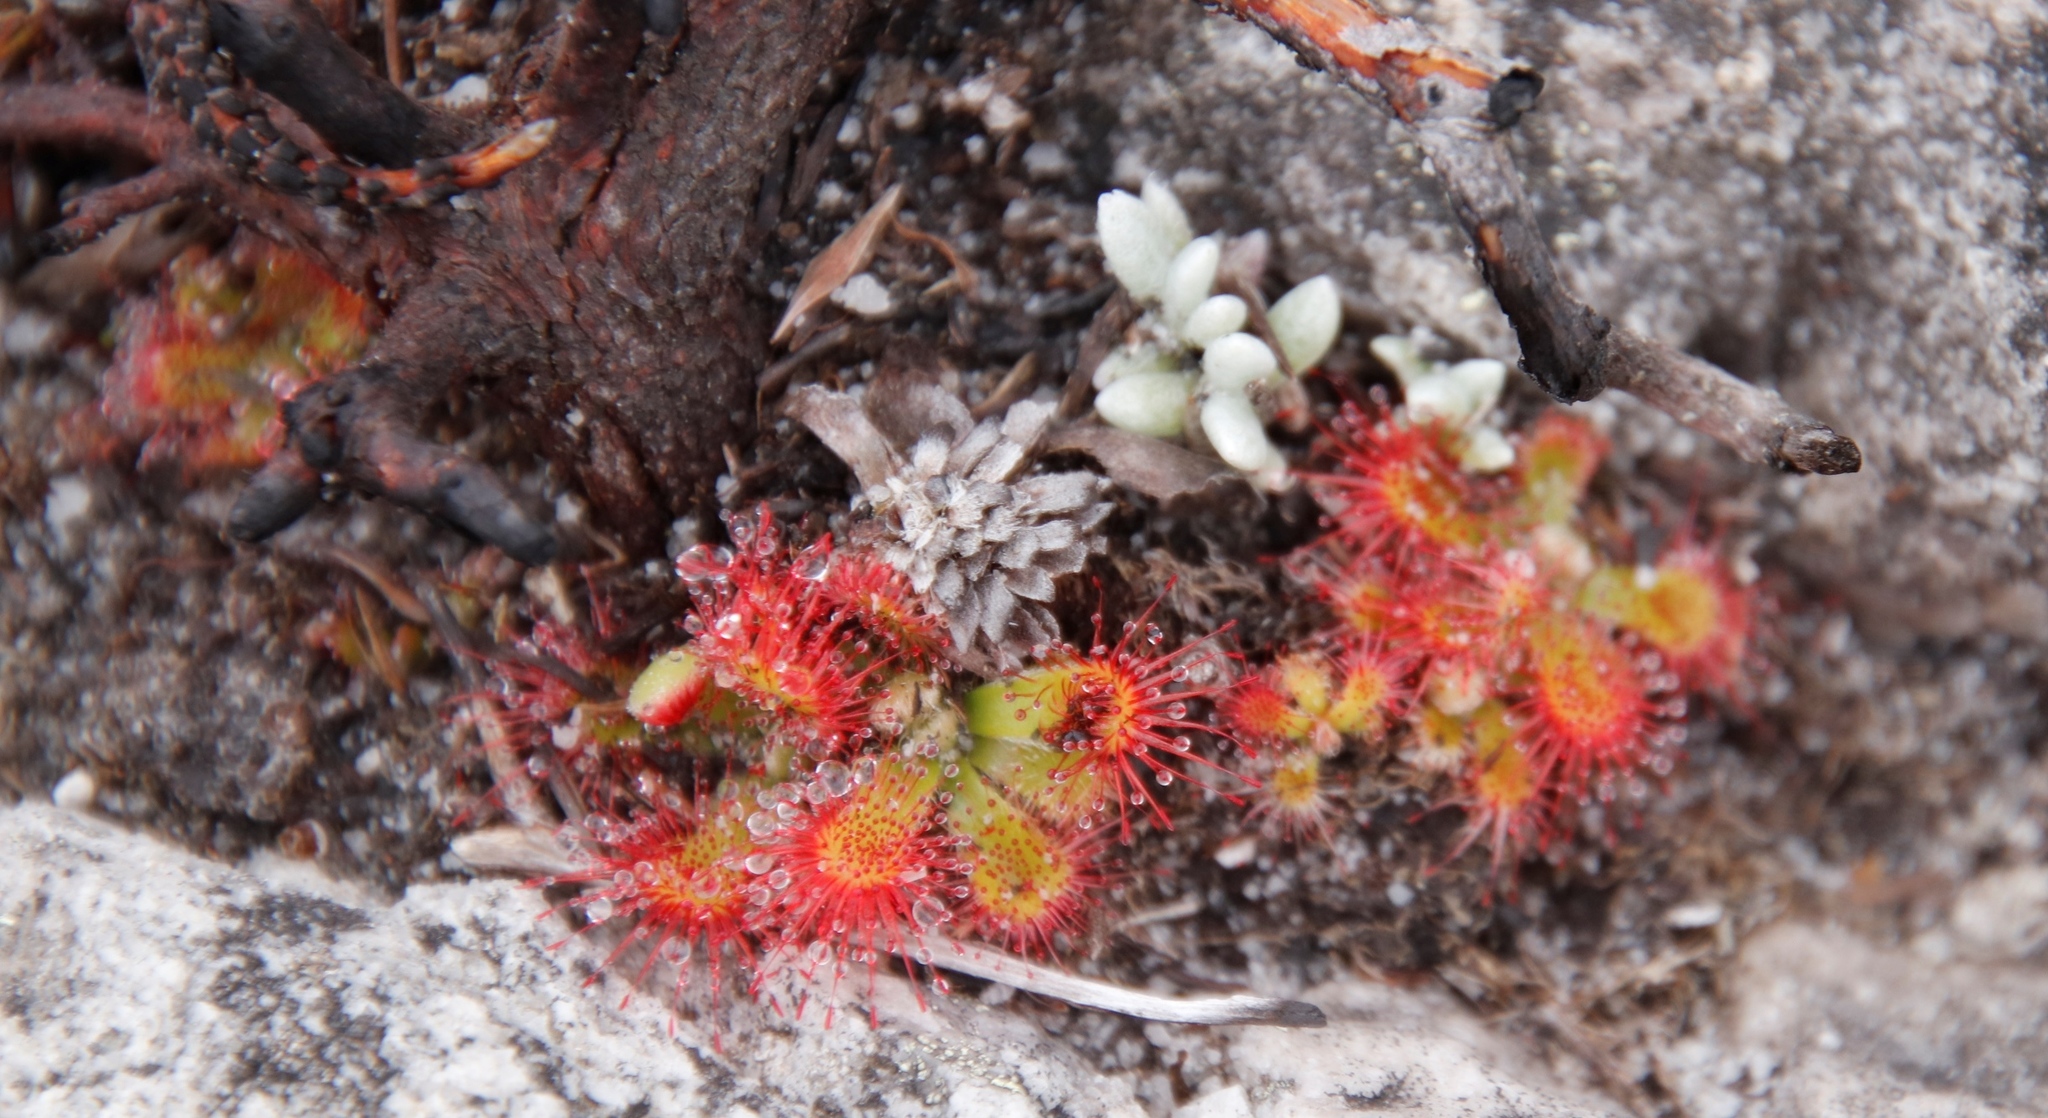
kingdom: Plantae
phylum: Tracheophyta
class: Magnoliopsida
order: Caryophyllales
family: Droseraceae
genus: Drosera
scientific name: Drosera aliciae
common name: Alice sundew
